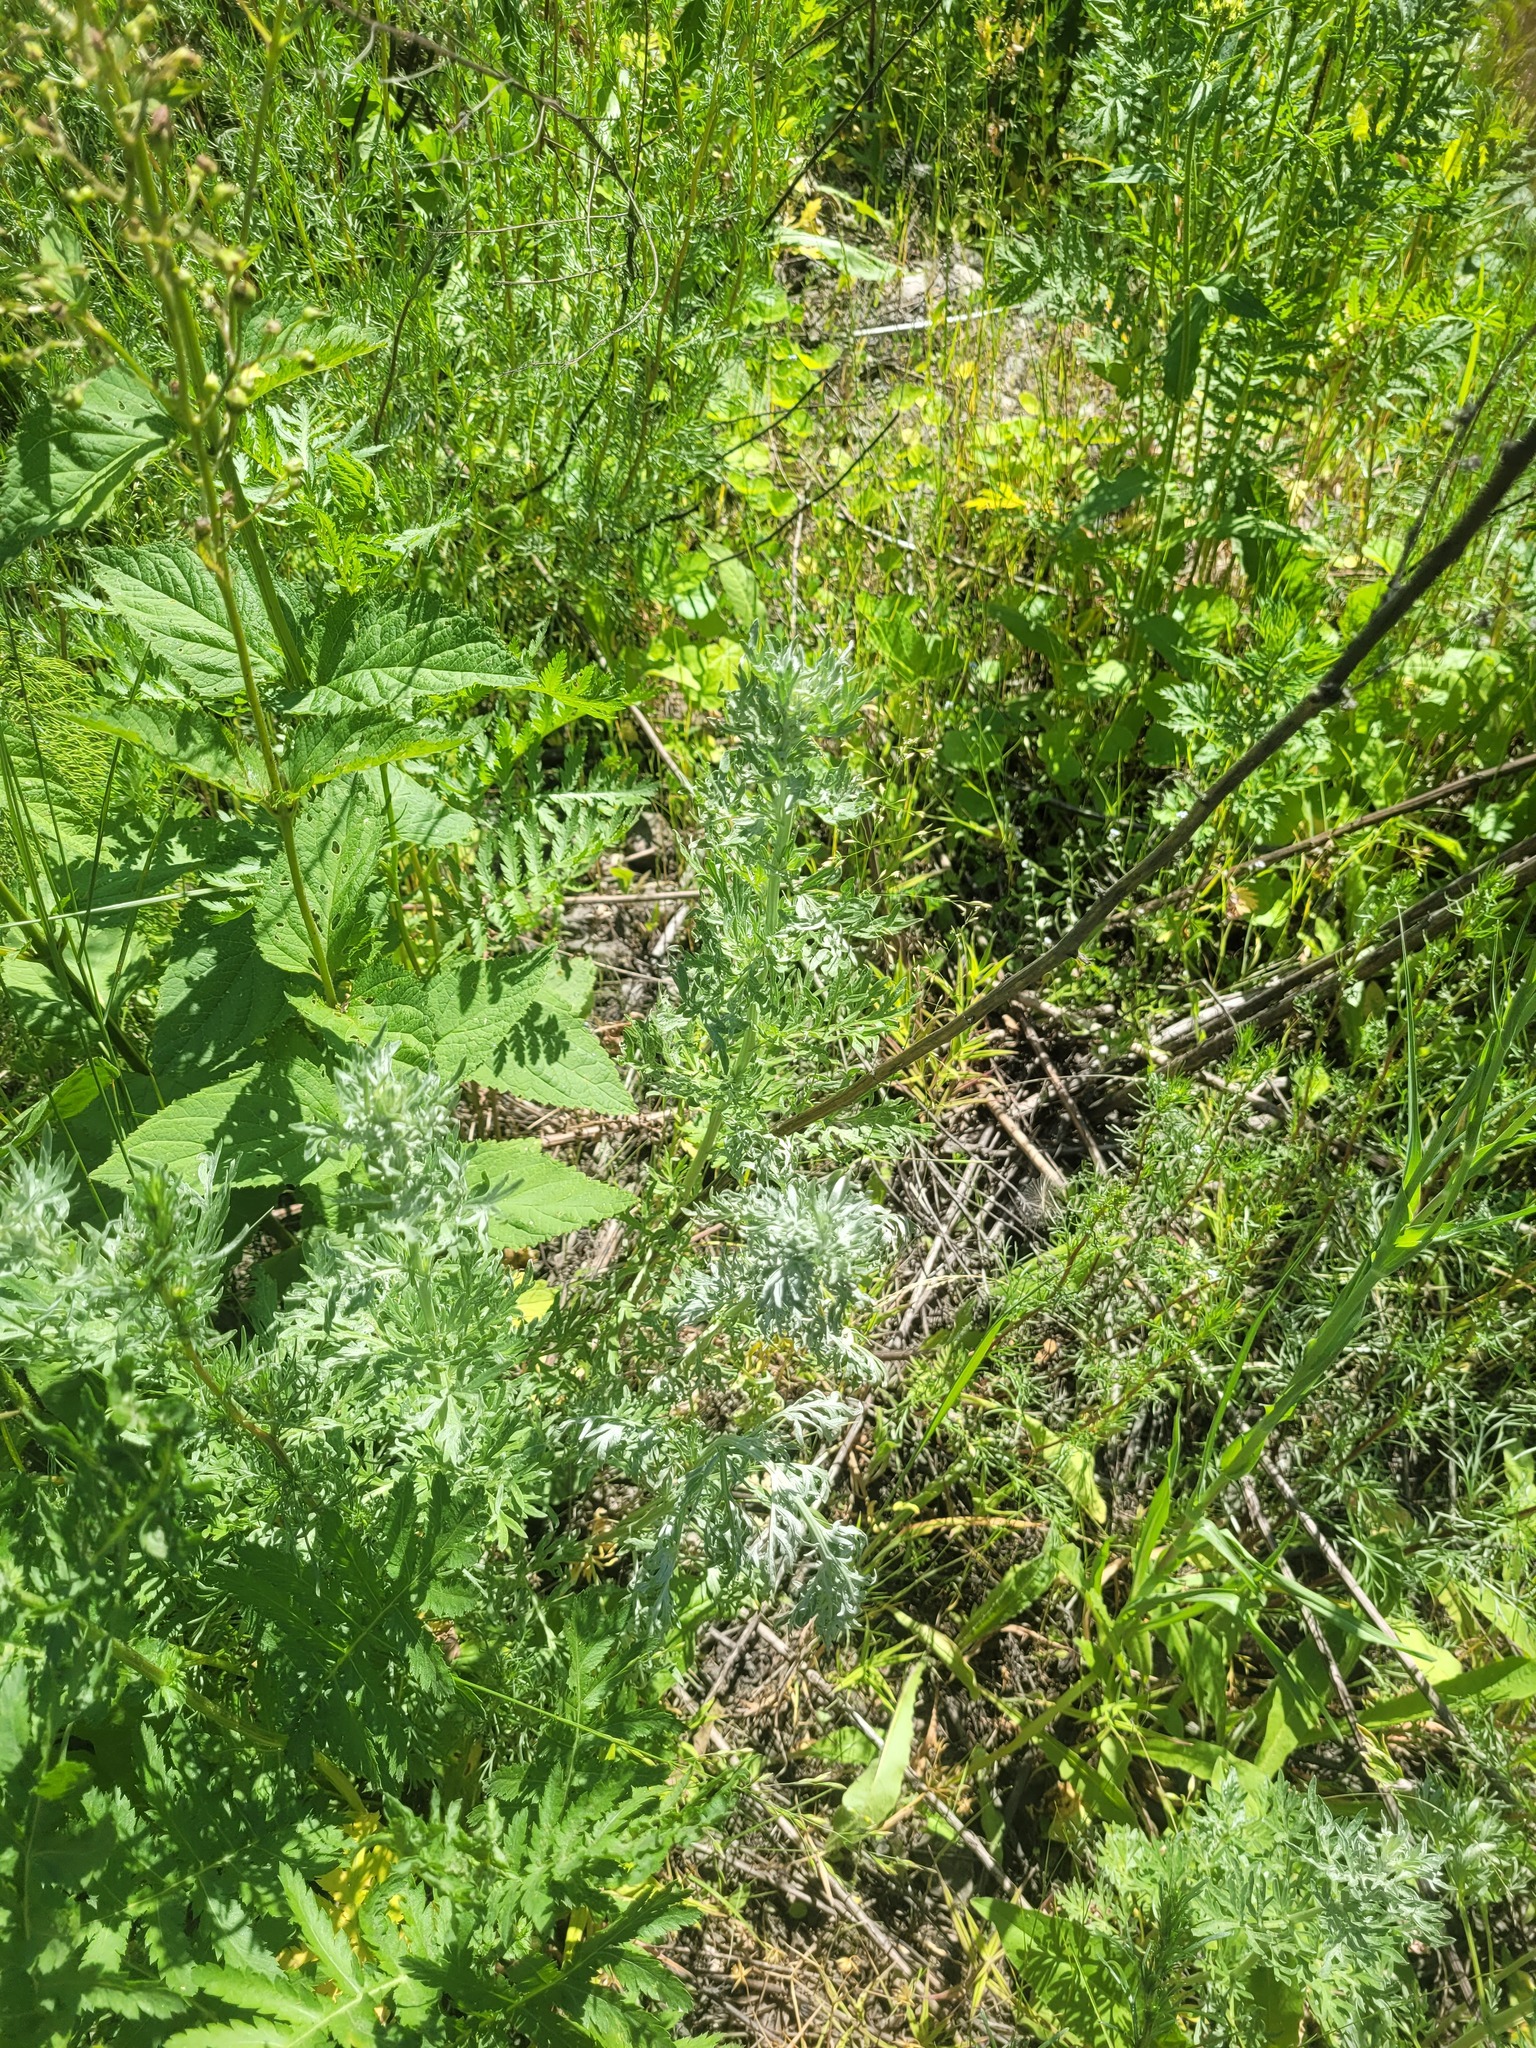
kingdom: Plantae
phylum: Tracheophyta
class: Magnoliopsida
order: Asterales
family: Asteraceae
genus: Artemisia
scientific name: Artemisia absinthium
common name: Wormwood
